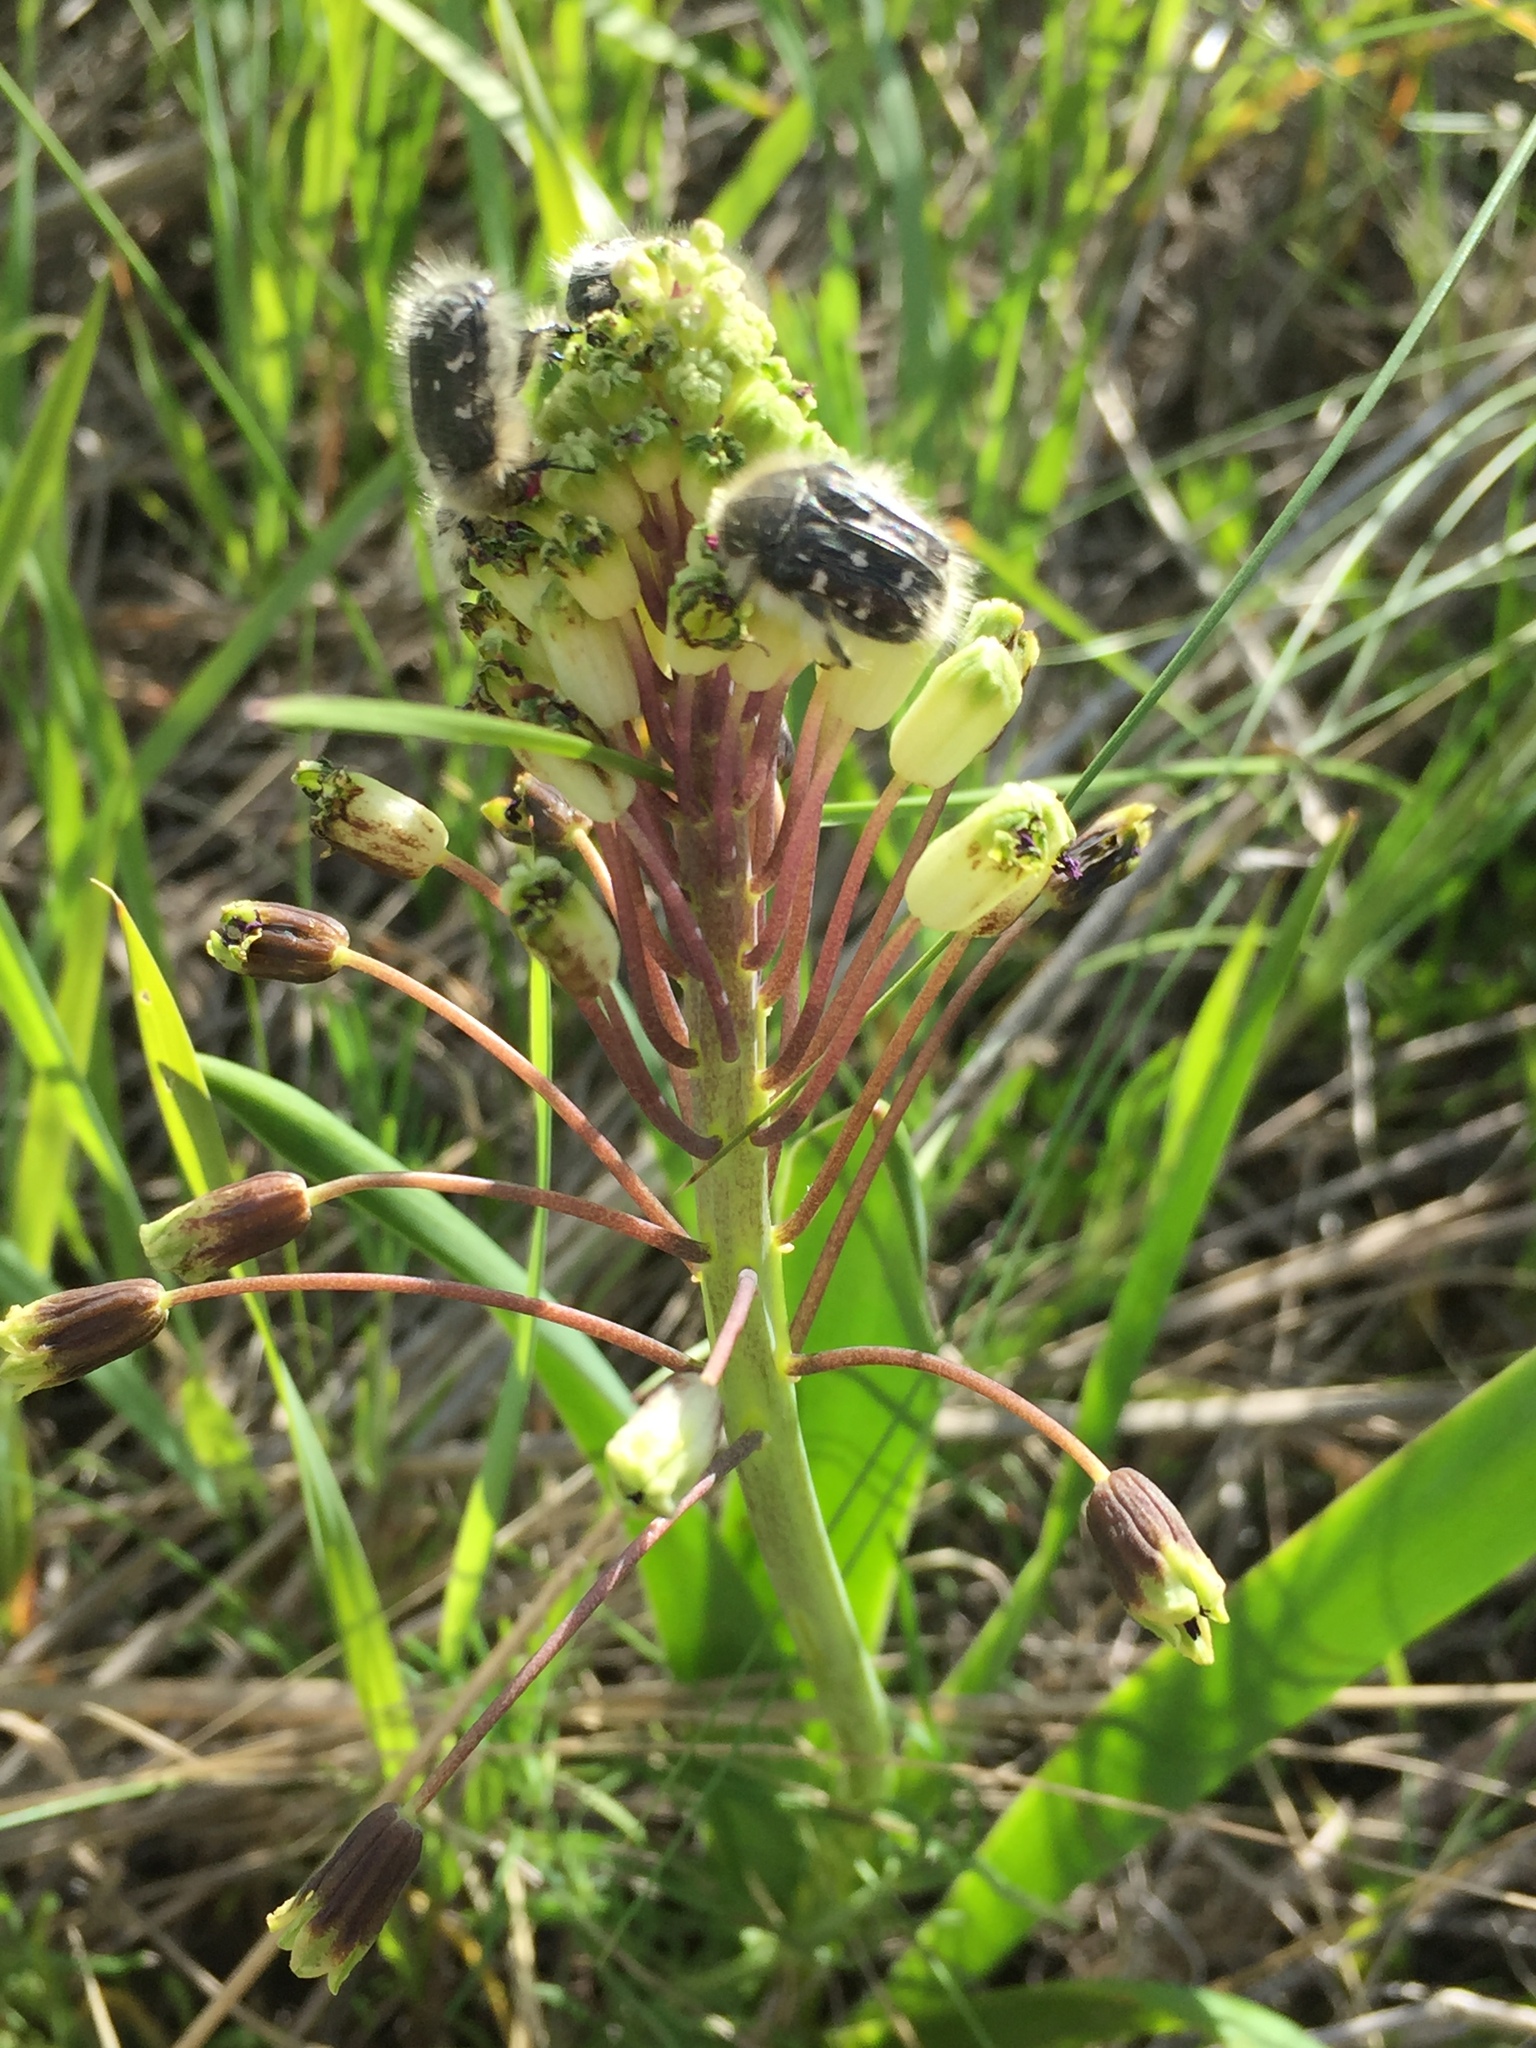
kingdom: Plantae
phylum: Tracheophyta
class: Liliopsida
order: Asparagales
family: Asparagaceae
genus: Bellevalia
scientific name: Bellevalia speciosa
